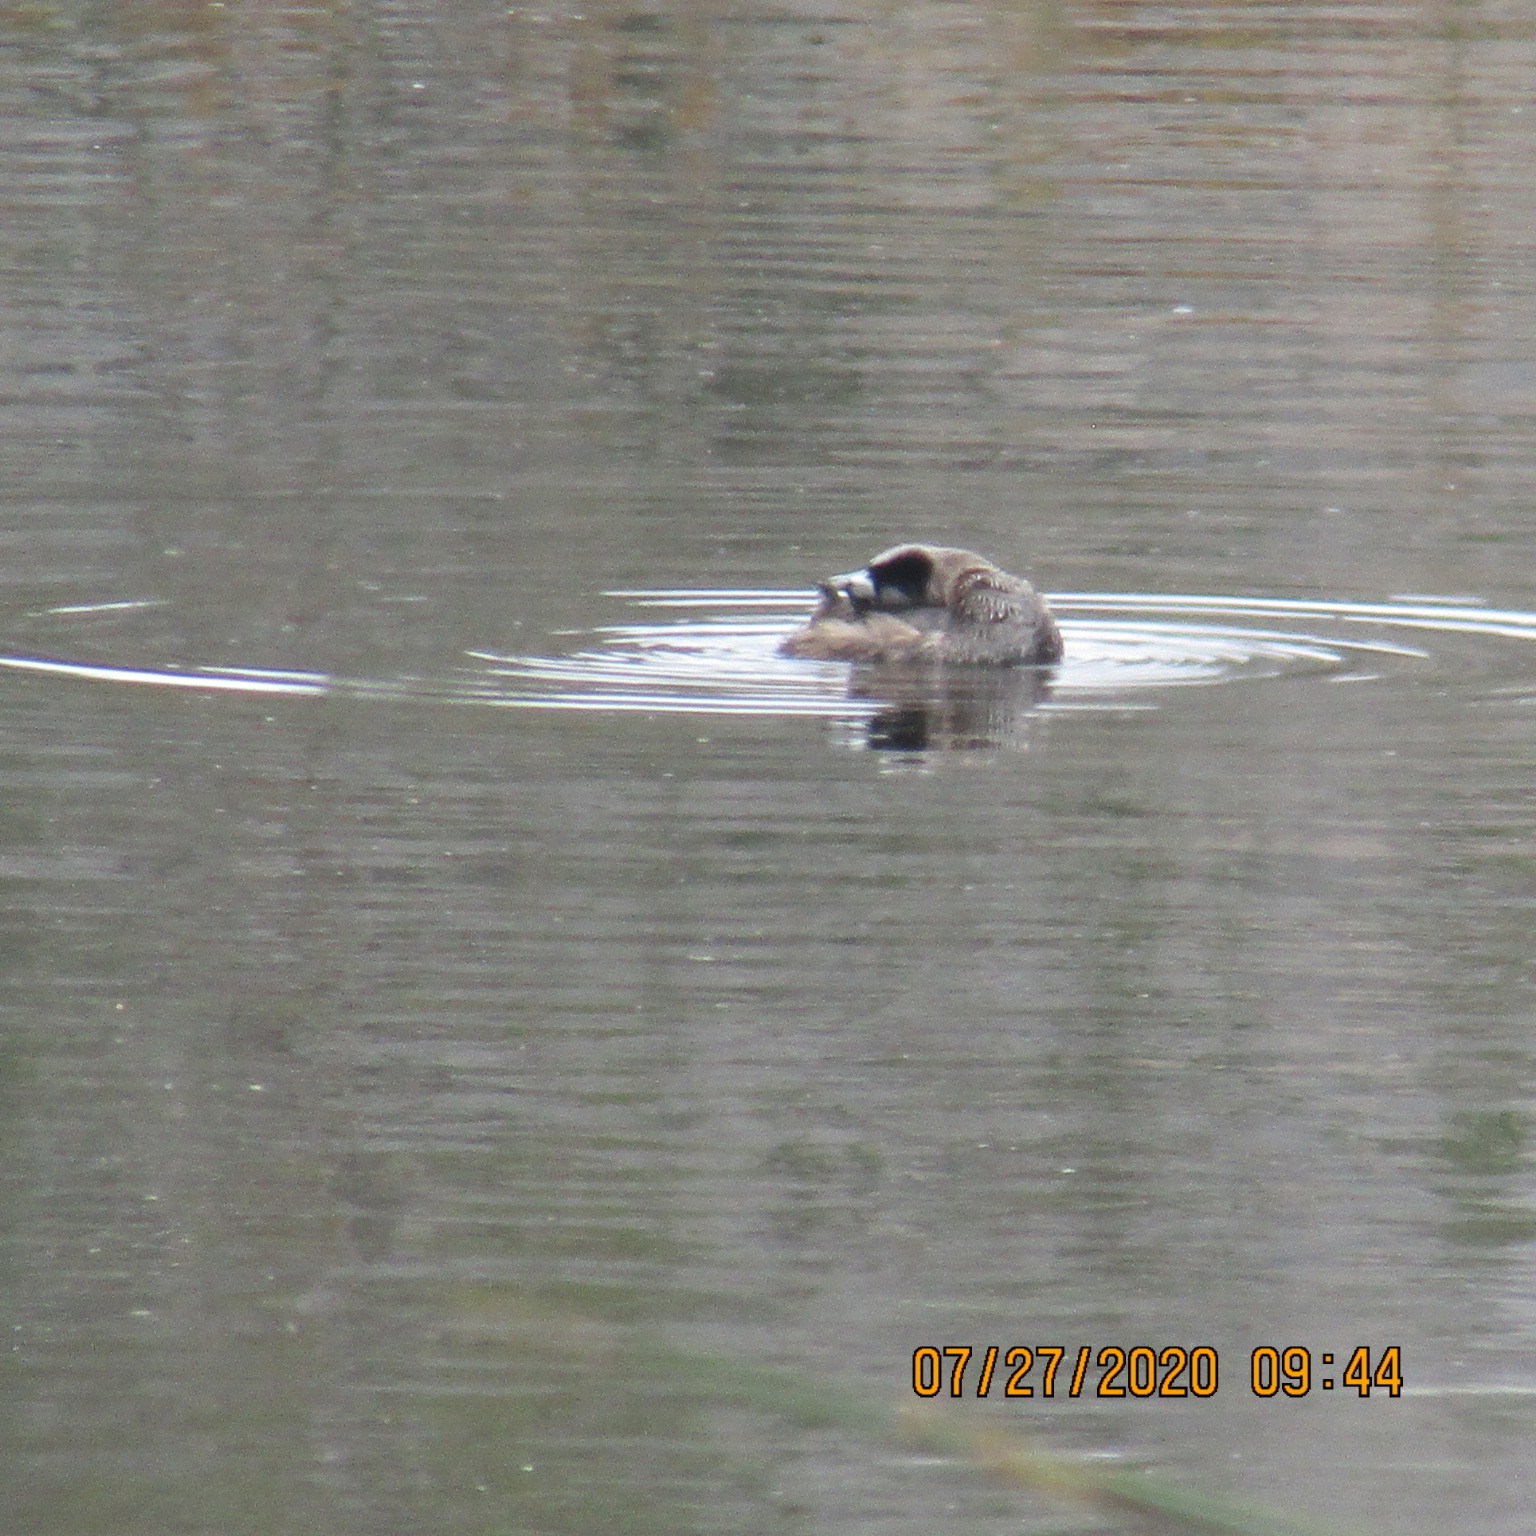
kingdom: Animalia
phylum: Chordata
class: Aves
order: Podicipediformes
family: Podicipedidae
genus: Podilymbus
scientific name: Podilymbus podiceps
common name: Pied-billed grebe
